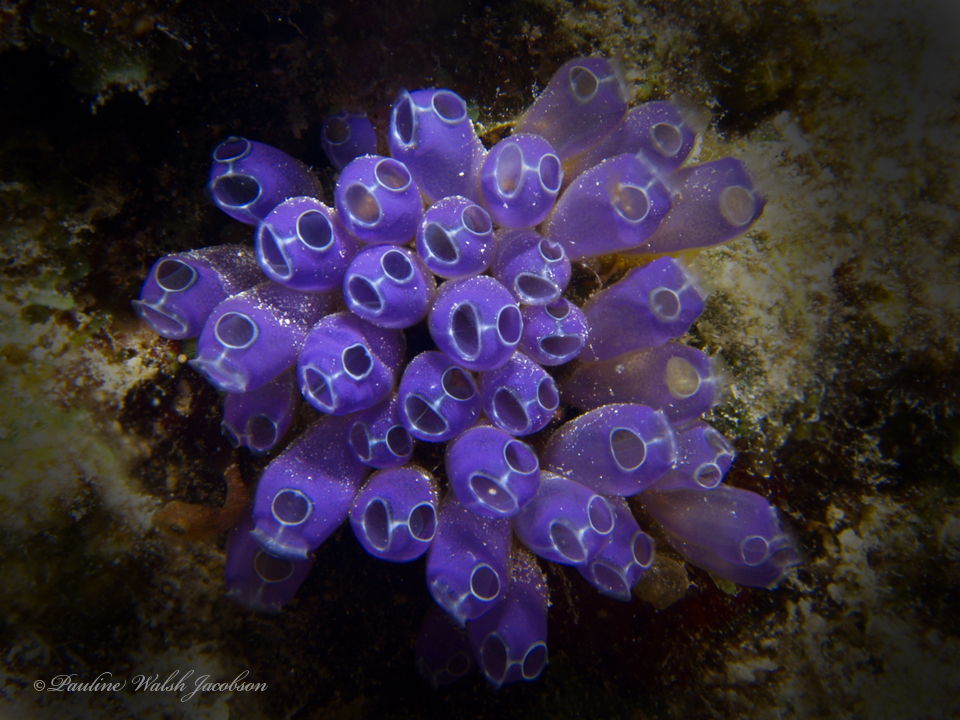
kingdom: Animalia
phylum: Chordata
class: Ascidiacea
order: Aplousobranchia
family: Clavelinidae
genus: Clavelina
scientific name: Clavelina puertosecensis
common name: Blue bell tunicate
